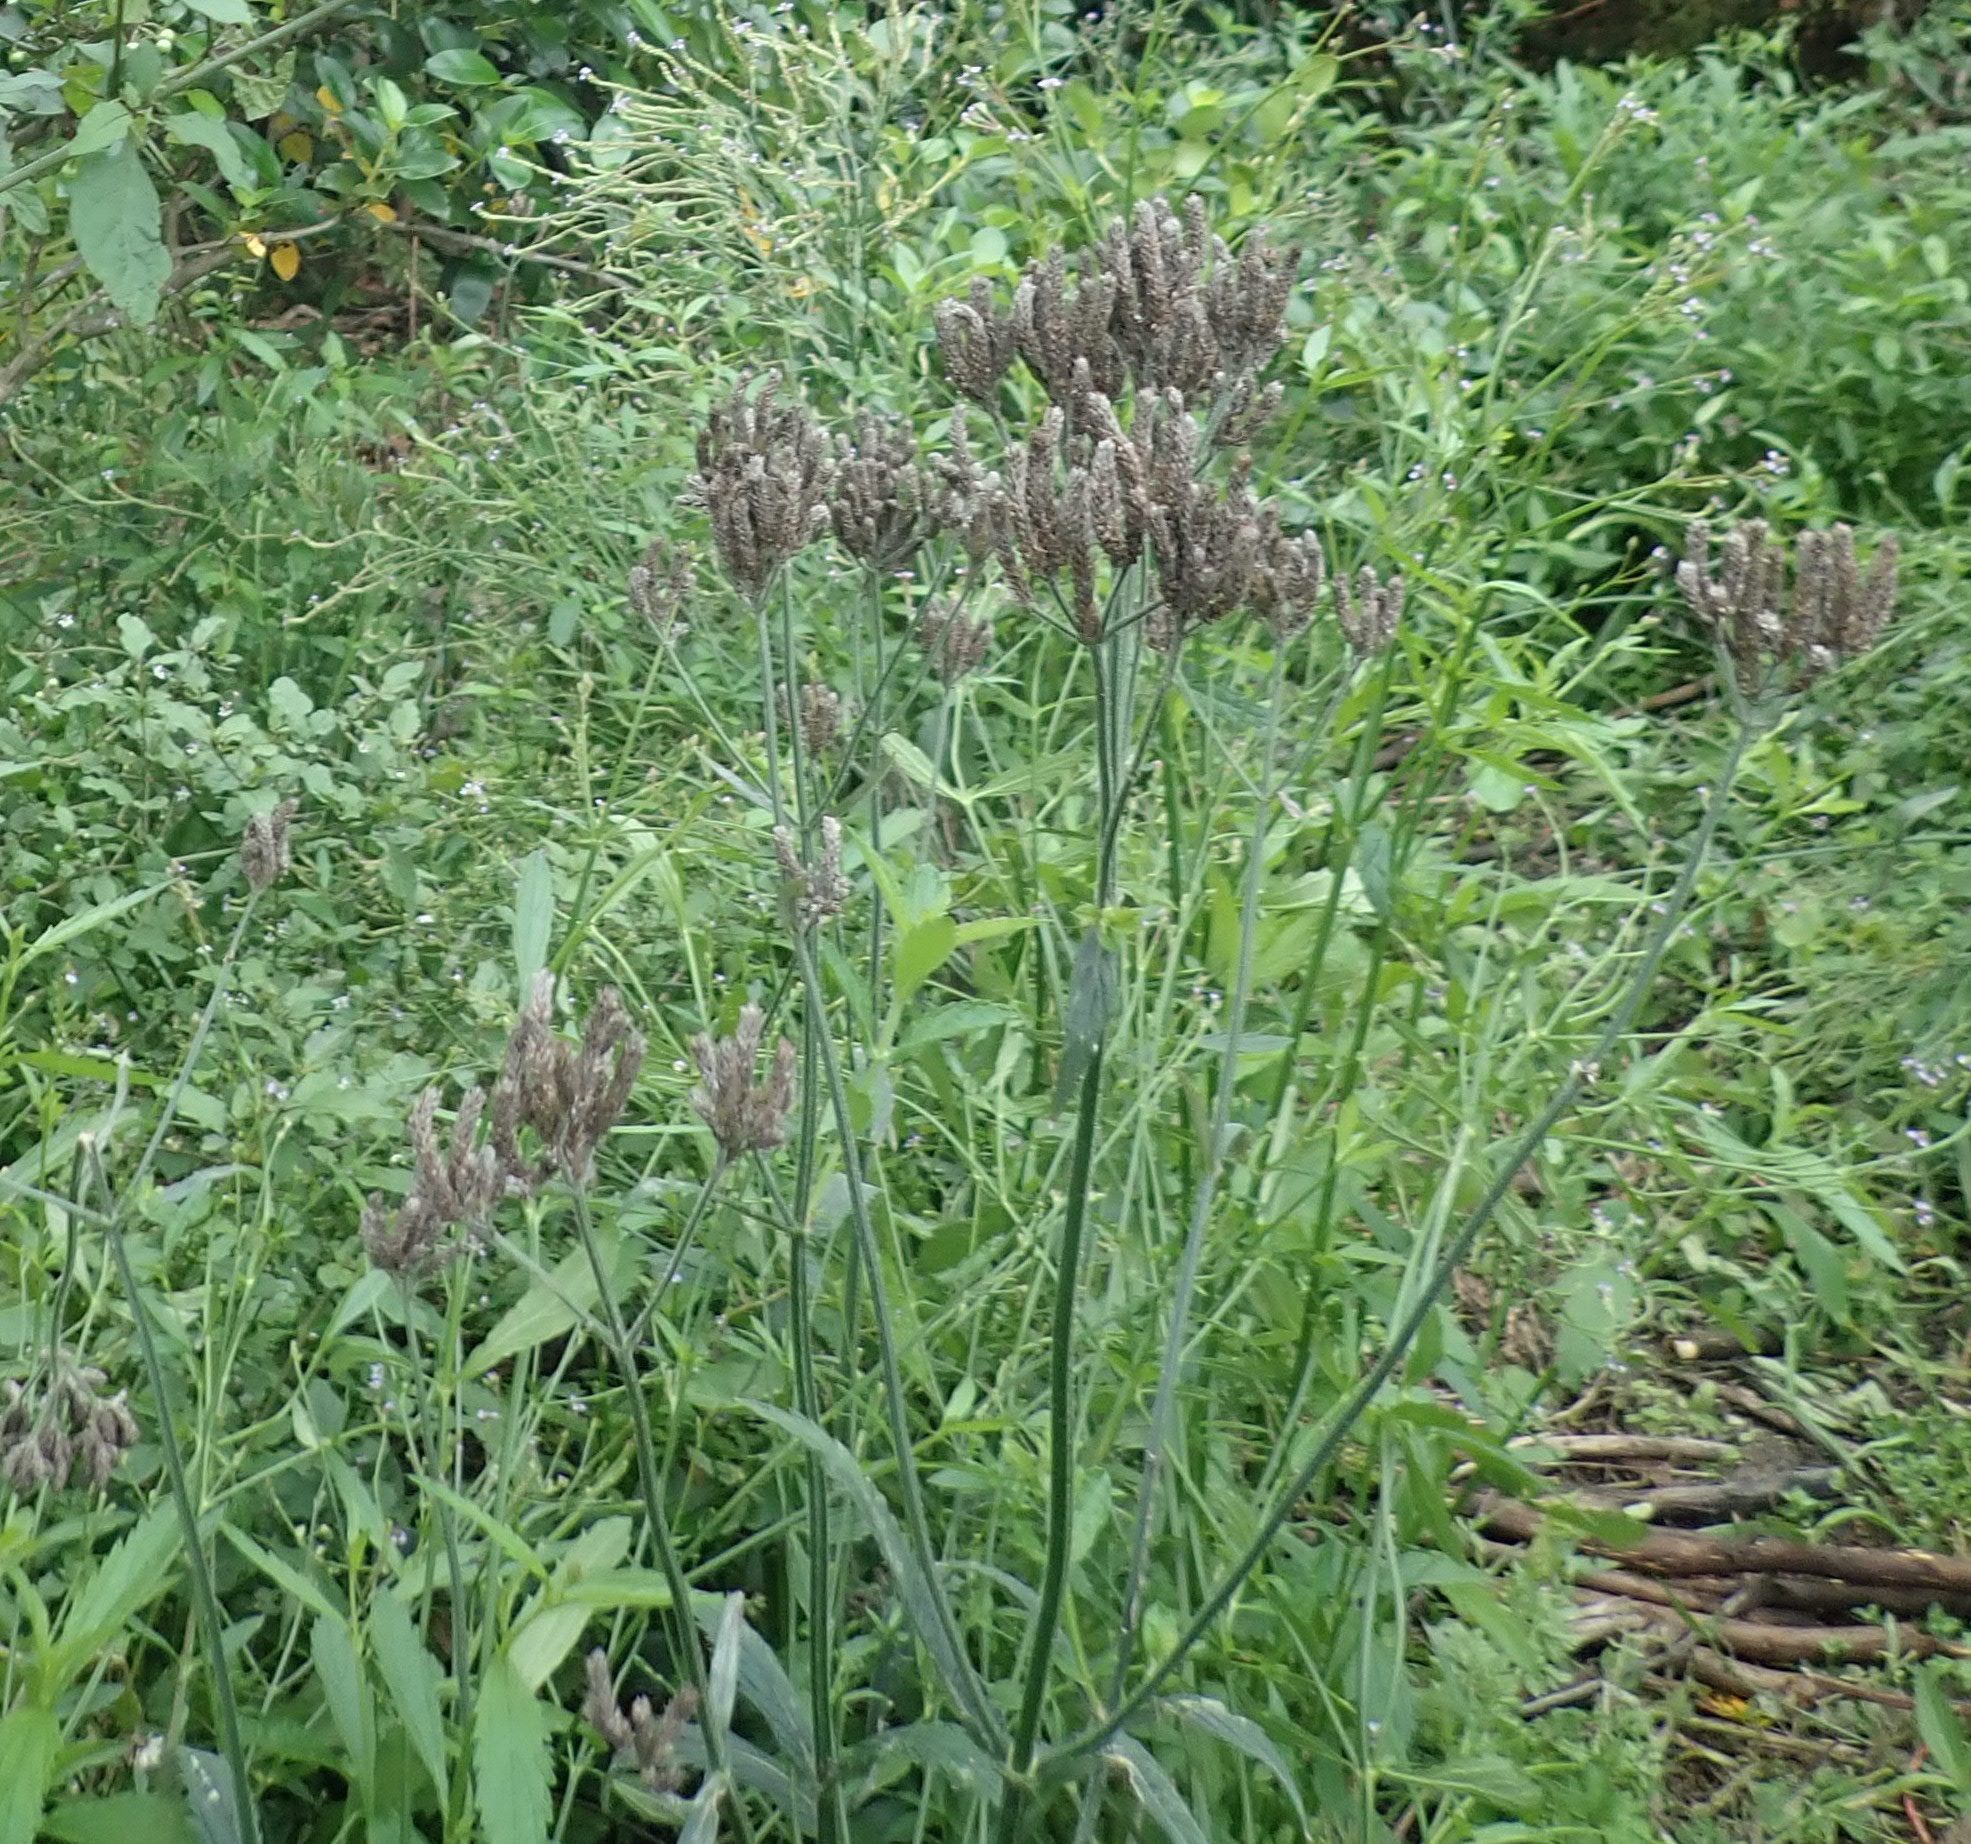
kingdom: Plantae
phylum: Tracheophyta
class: Magnoliopsida
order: Lamiales
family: Verbenaceae
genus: Verbena
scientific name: Verbena incompta
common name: Purpletop vervain
